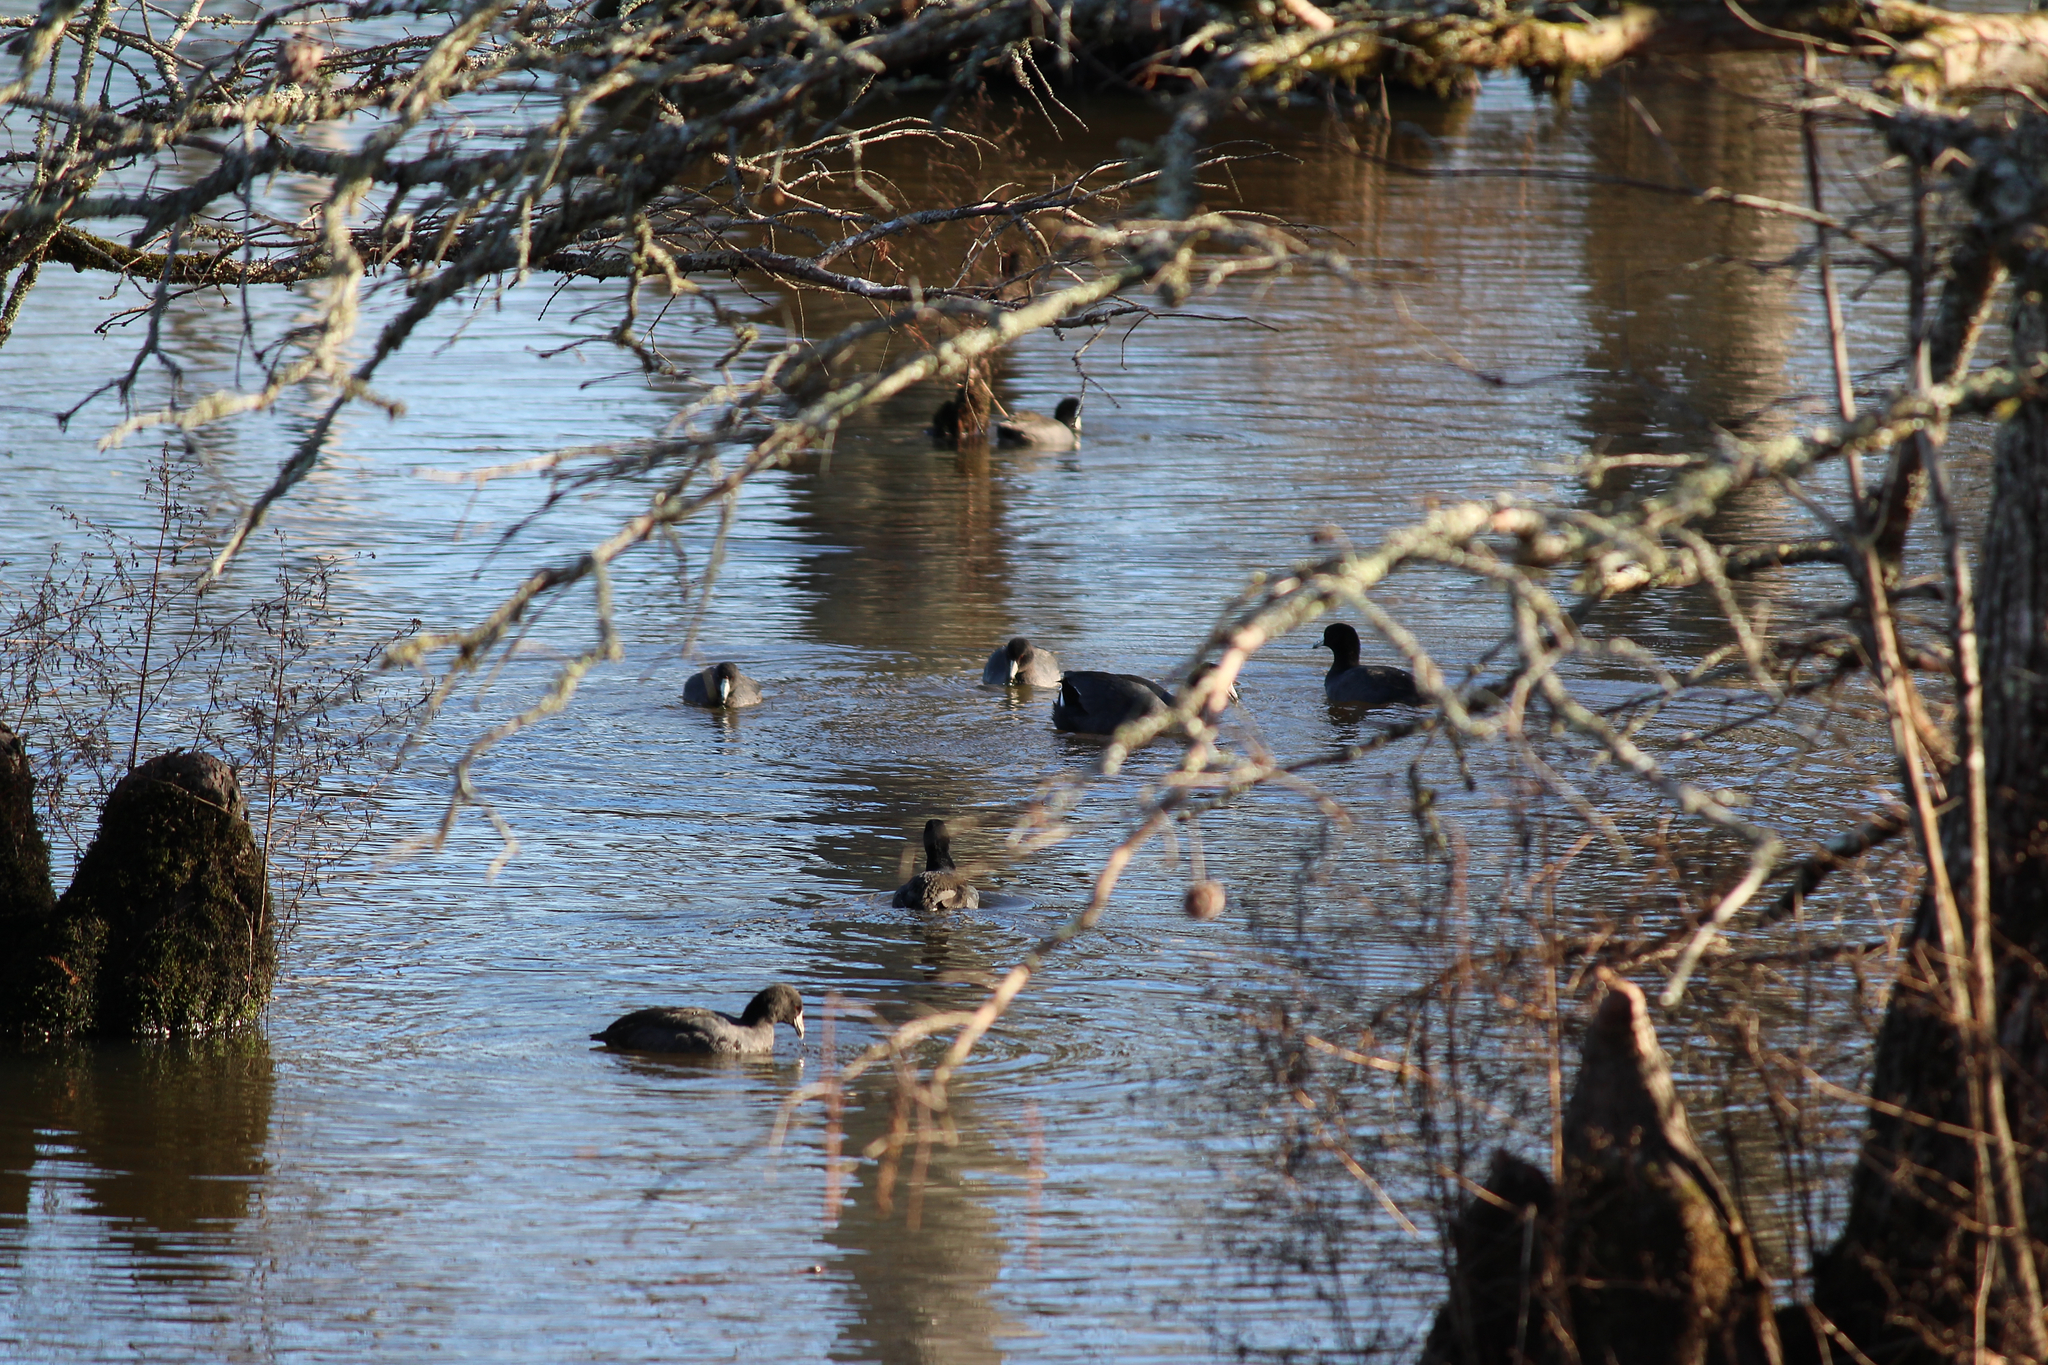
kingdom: Animalia
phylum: Chordata
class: Aves
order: Gruiformes
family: Rallidae
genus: Fulica
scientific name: Fulica americana
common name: American coot
